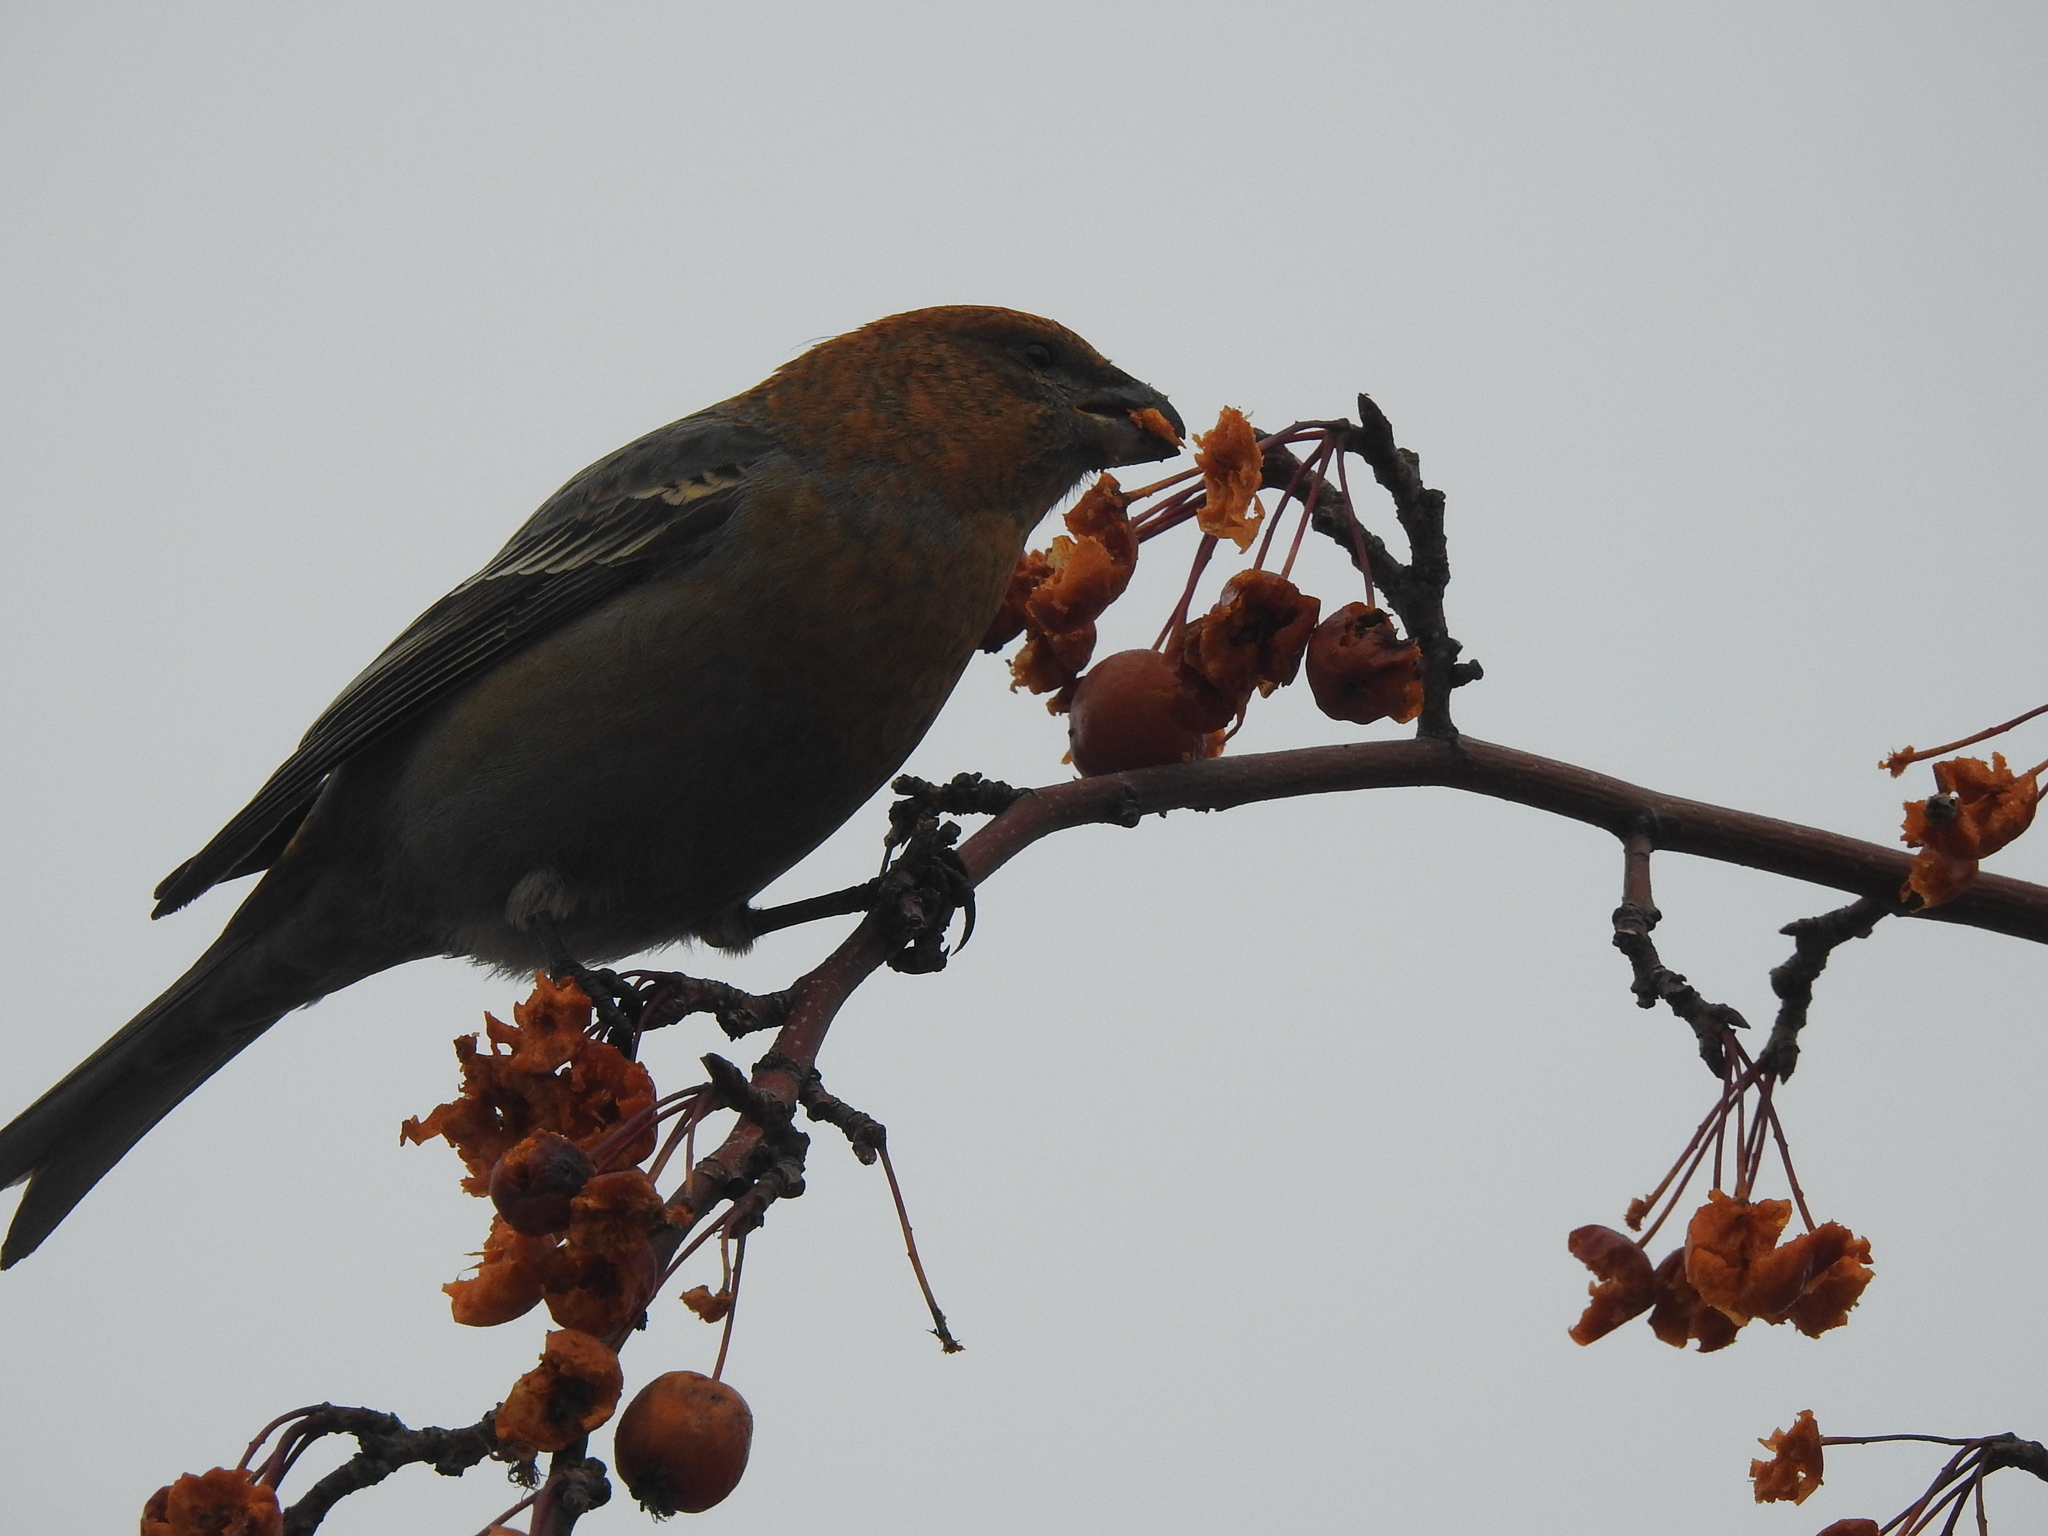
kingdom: Animalia
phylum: Chordata
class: Aves
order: Passeriformes
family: Fringillidae
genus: Pinicola
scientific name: Pinicola enucleator
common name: Pine grosbeak
